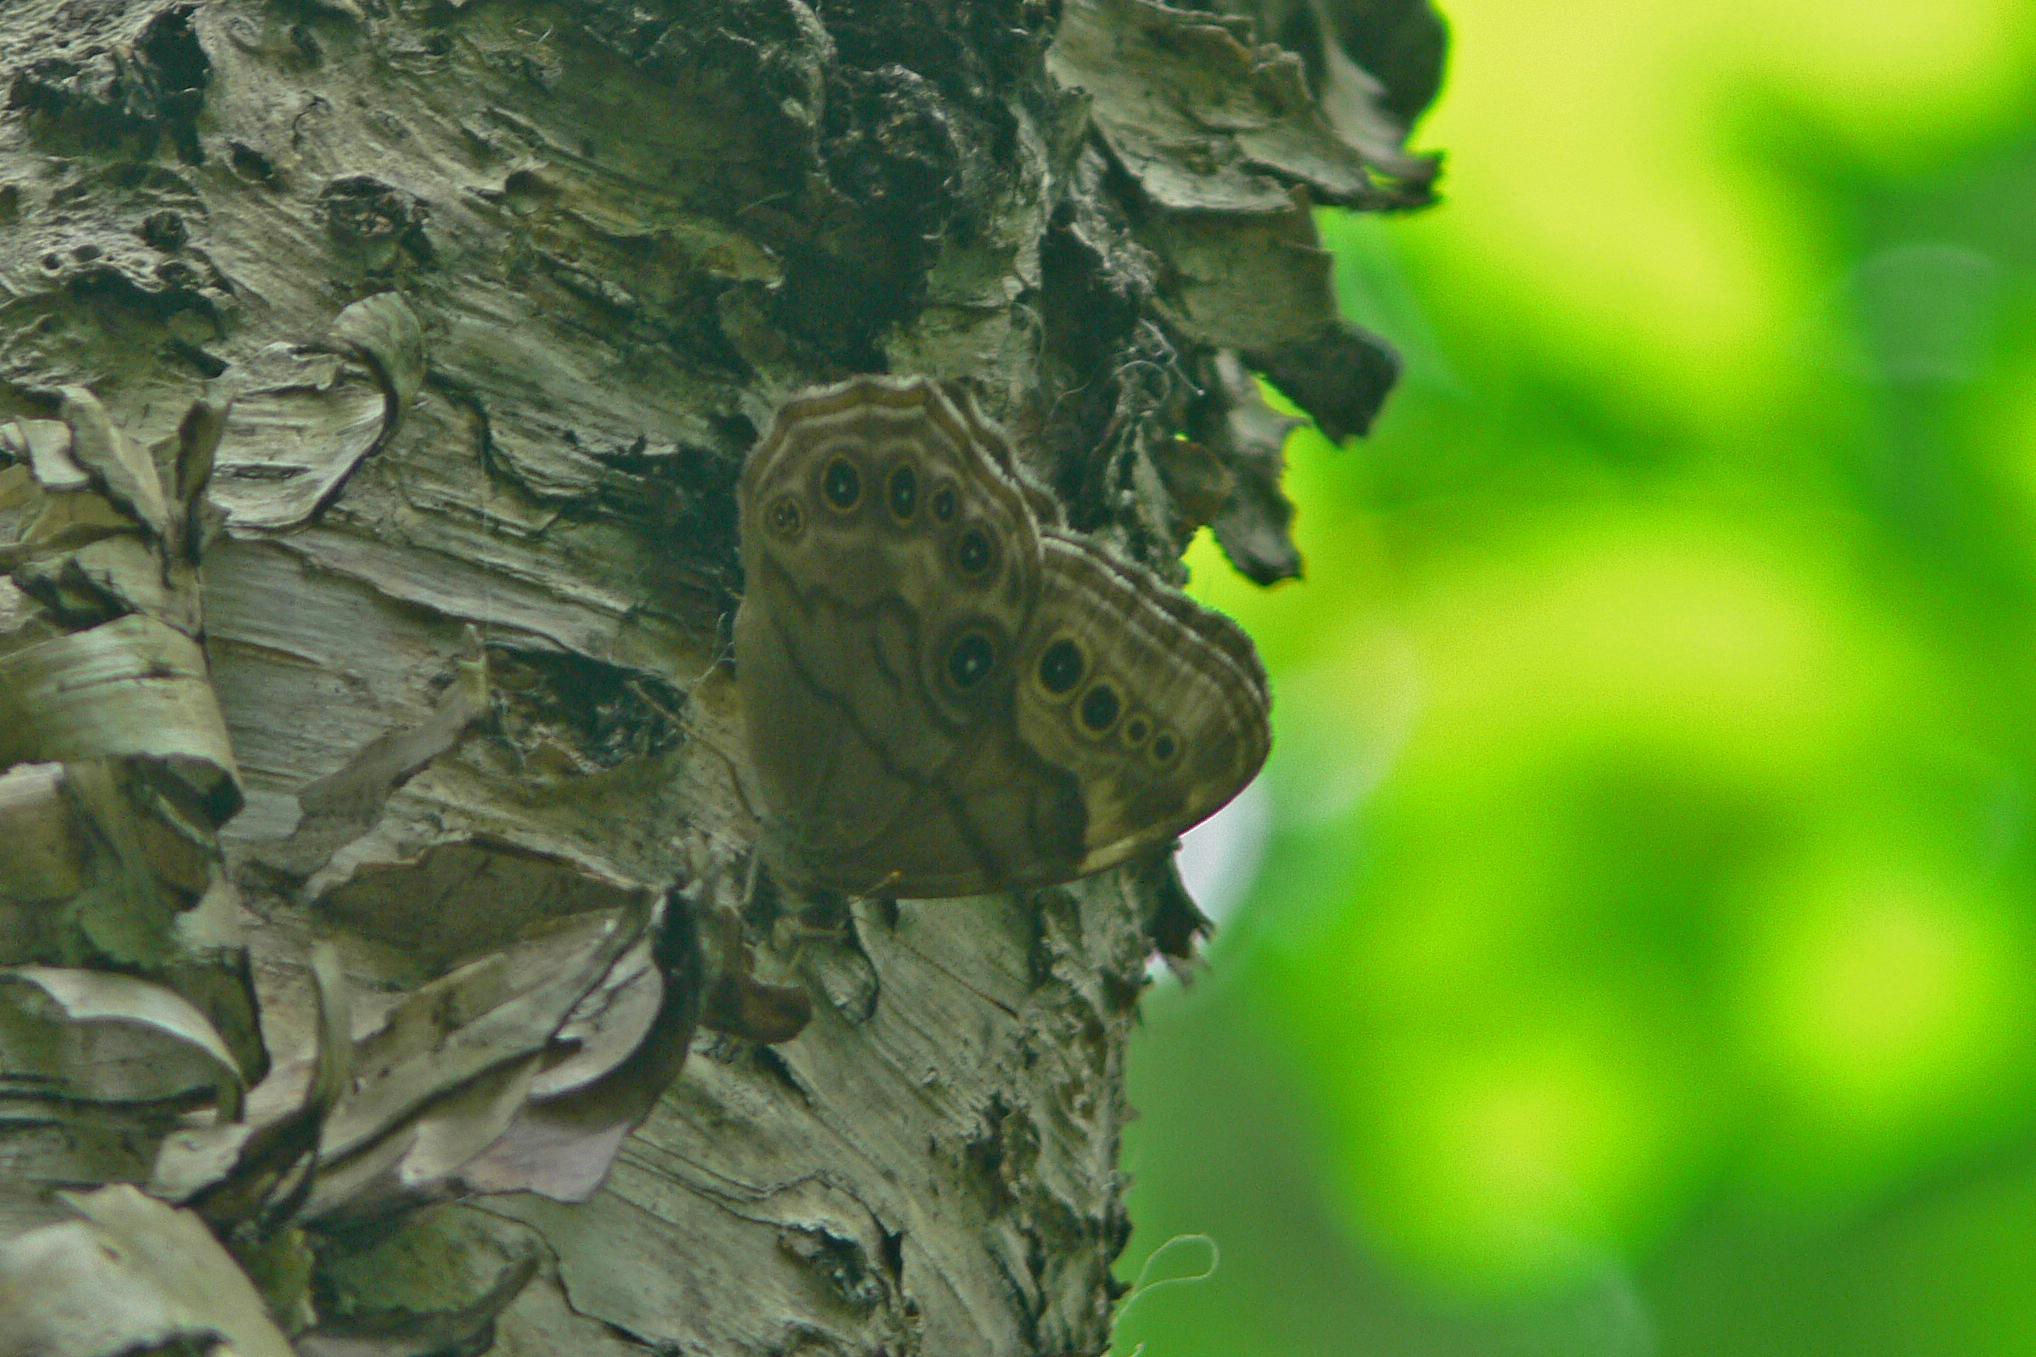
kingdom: Animalia
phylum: Arthropoda
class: Insecta
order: Lepidoptera
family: Nymphalidae
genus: Lethe
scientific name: Lethe anthedon
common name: Northern pearly-eye
